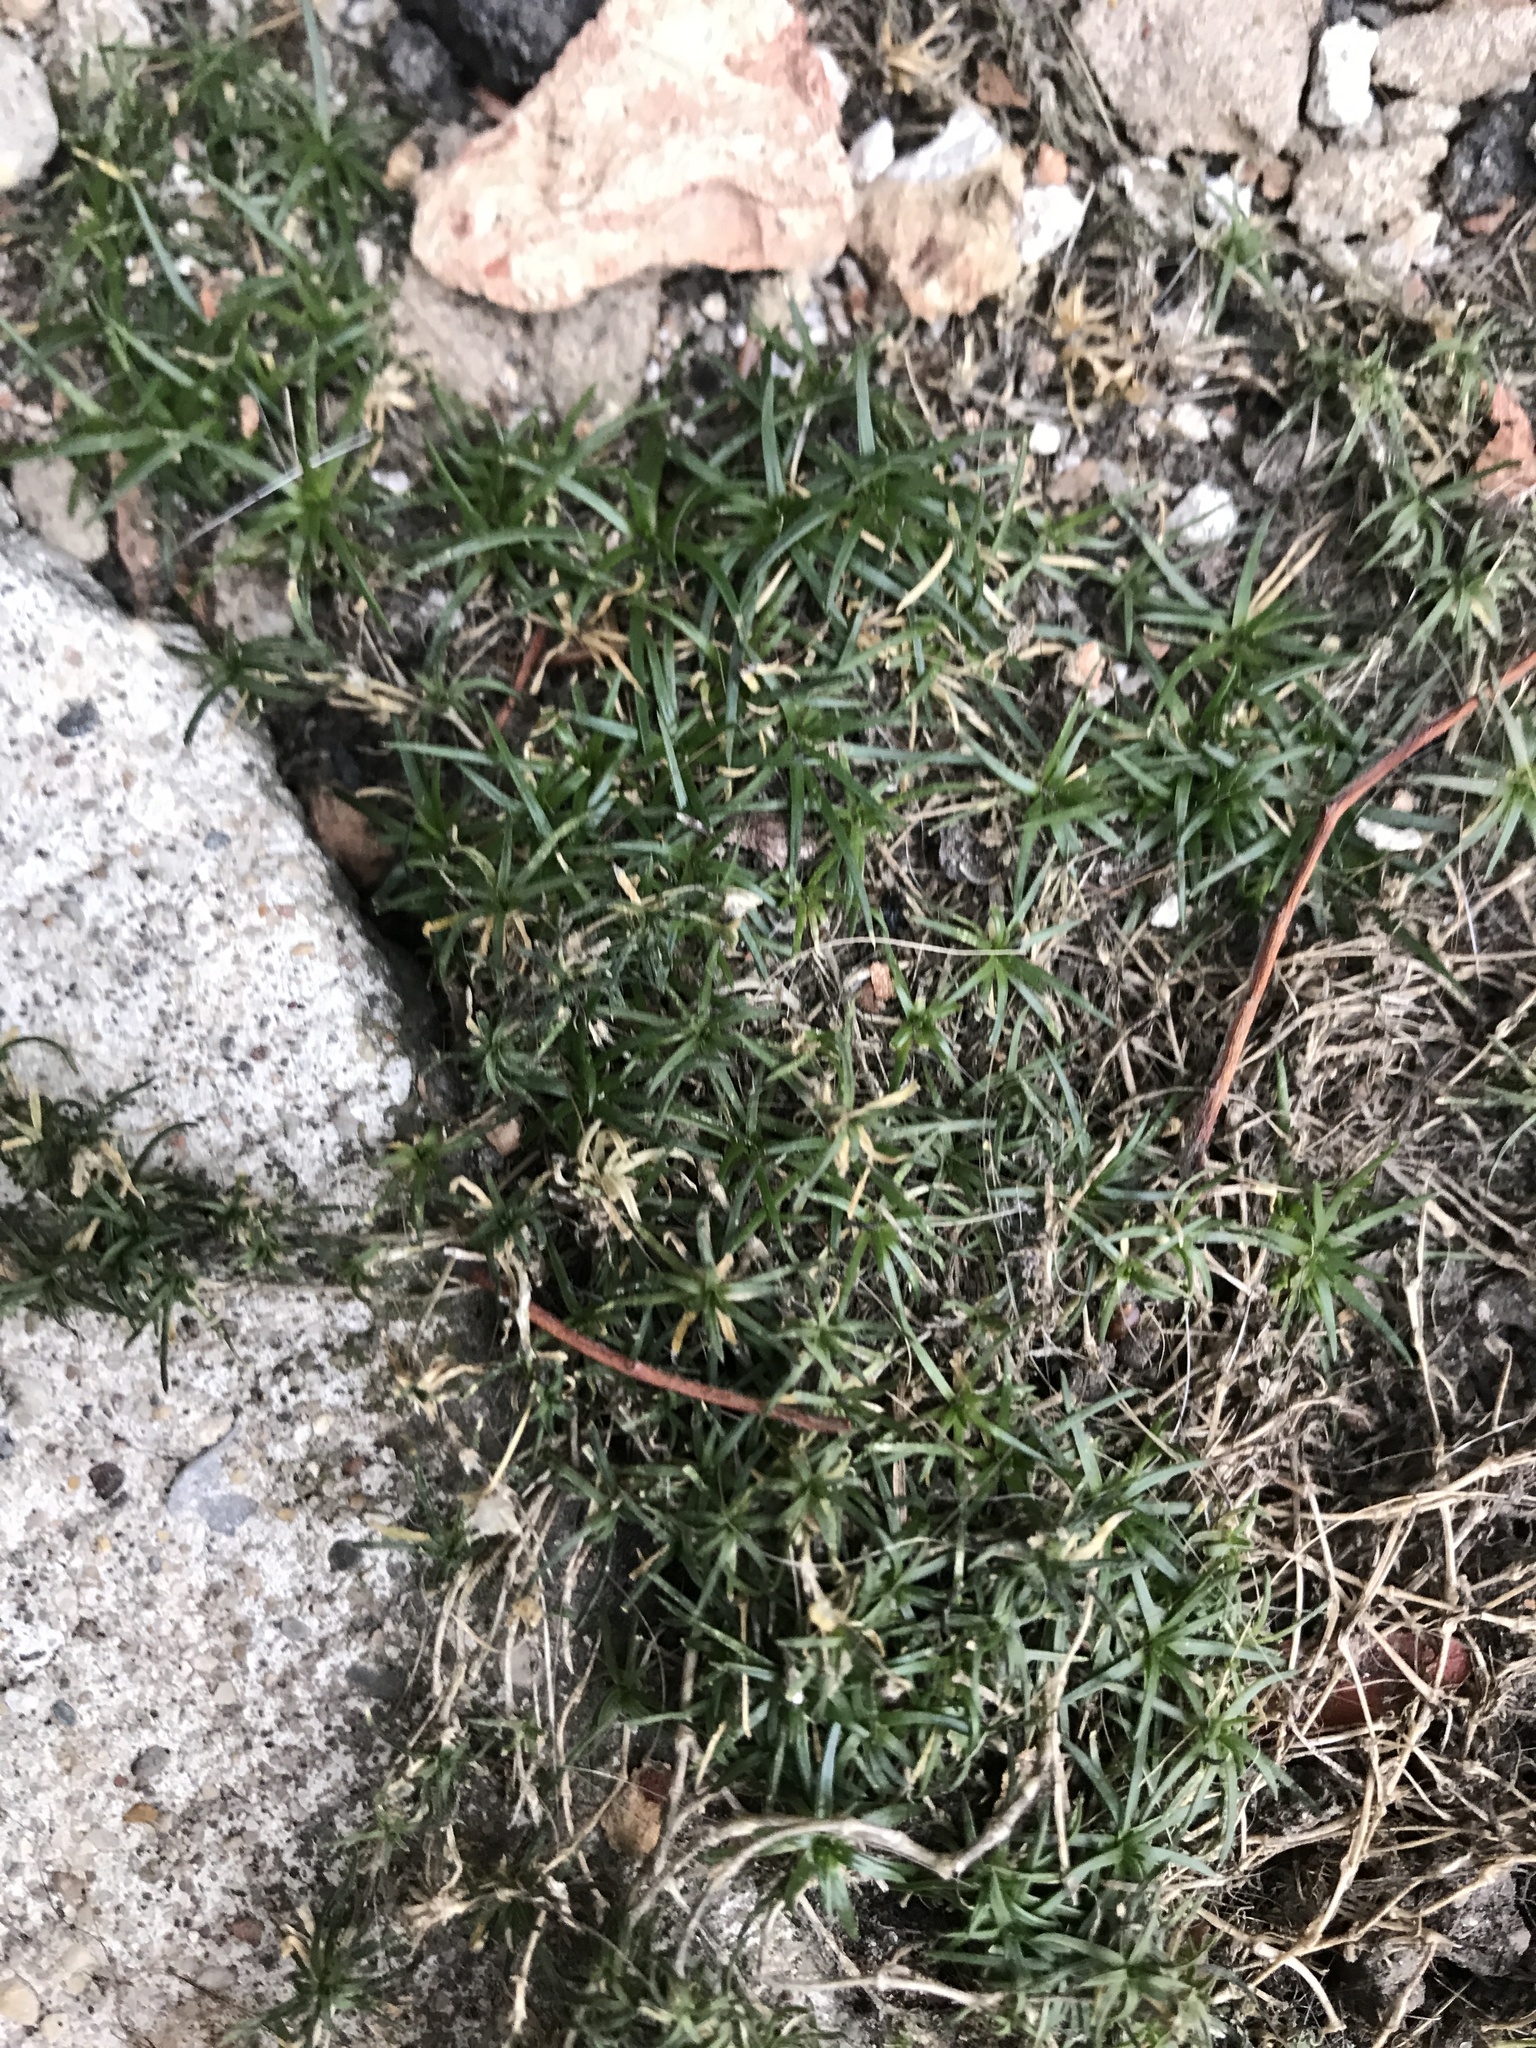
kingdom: Plantae
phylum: Tracheophyta
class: Magnoliopsida
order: Caryophyllales
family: Caryophyllaceae
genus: Sagina
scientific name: Sagina procumbens
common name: Procumbent pearlwort
